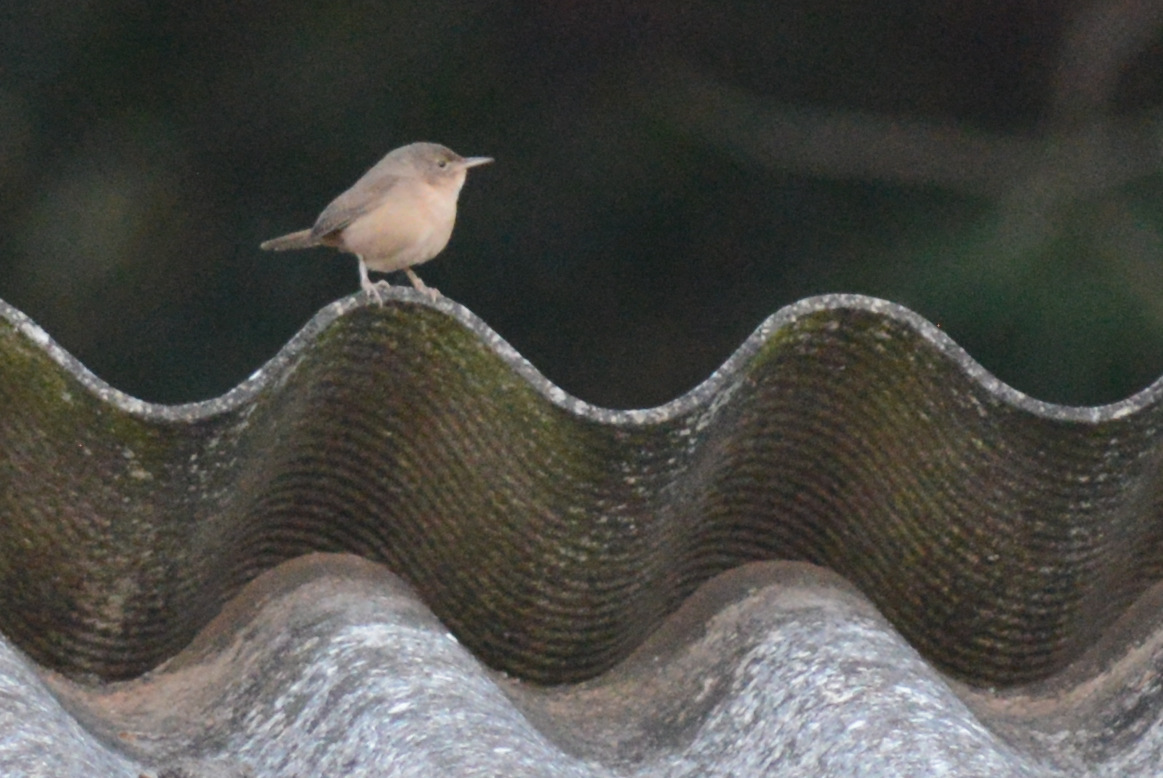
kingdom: Animalia
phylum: Chordata
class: Aves
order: Passeriformes
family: Troglodytidae
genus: Troglodytes
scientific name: Troglodytes aedon
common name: House wren
